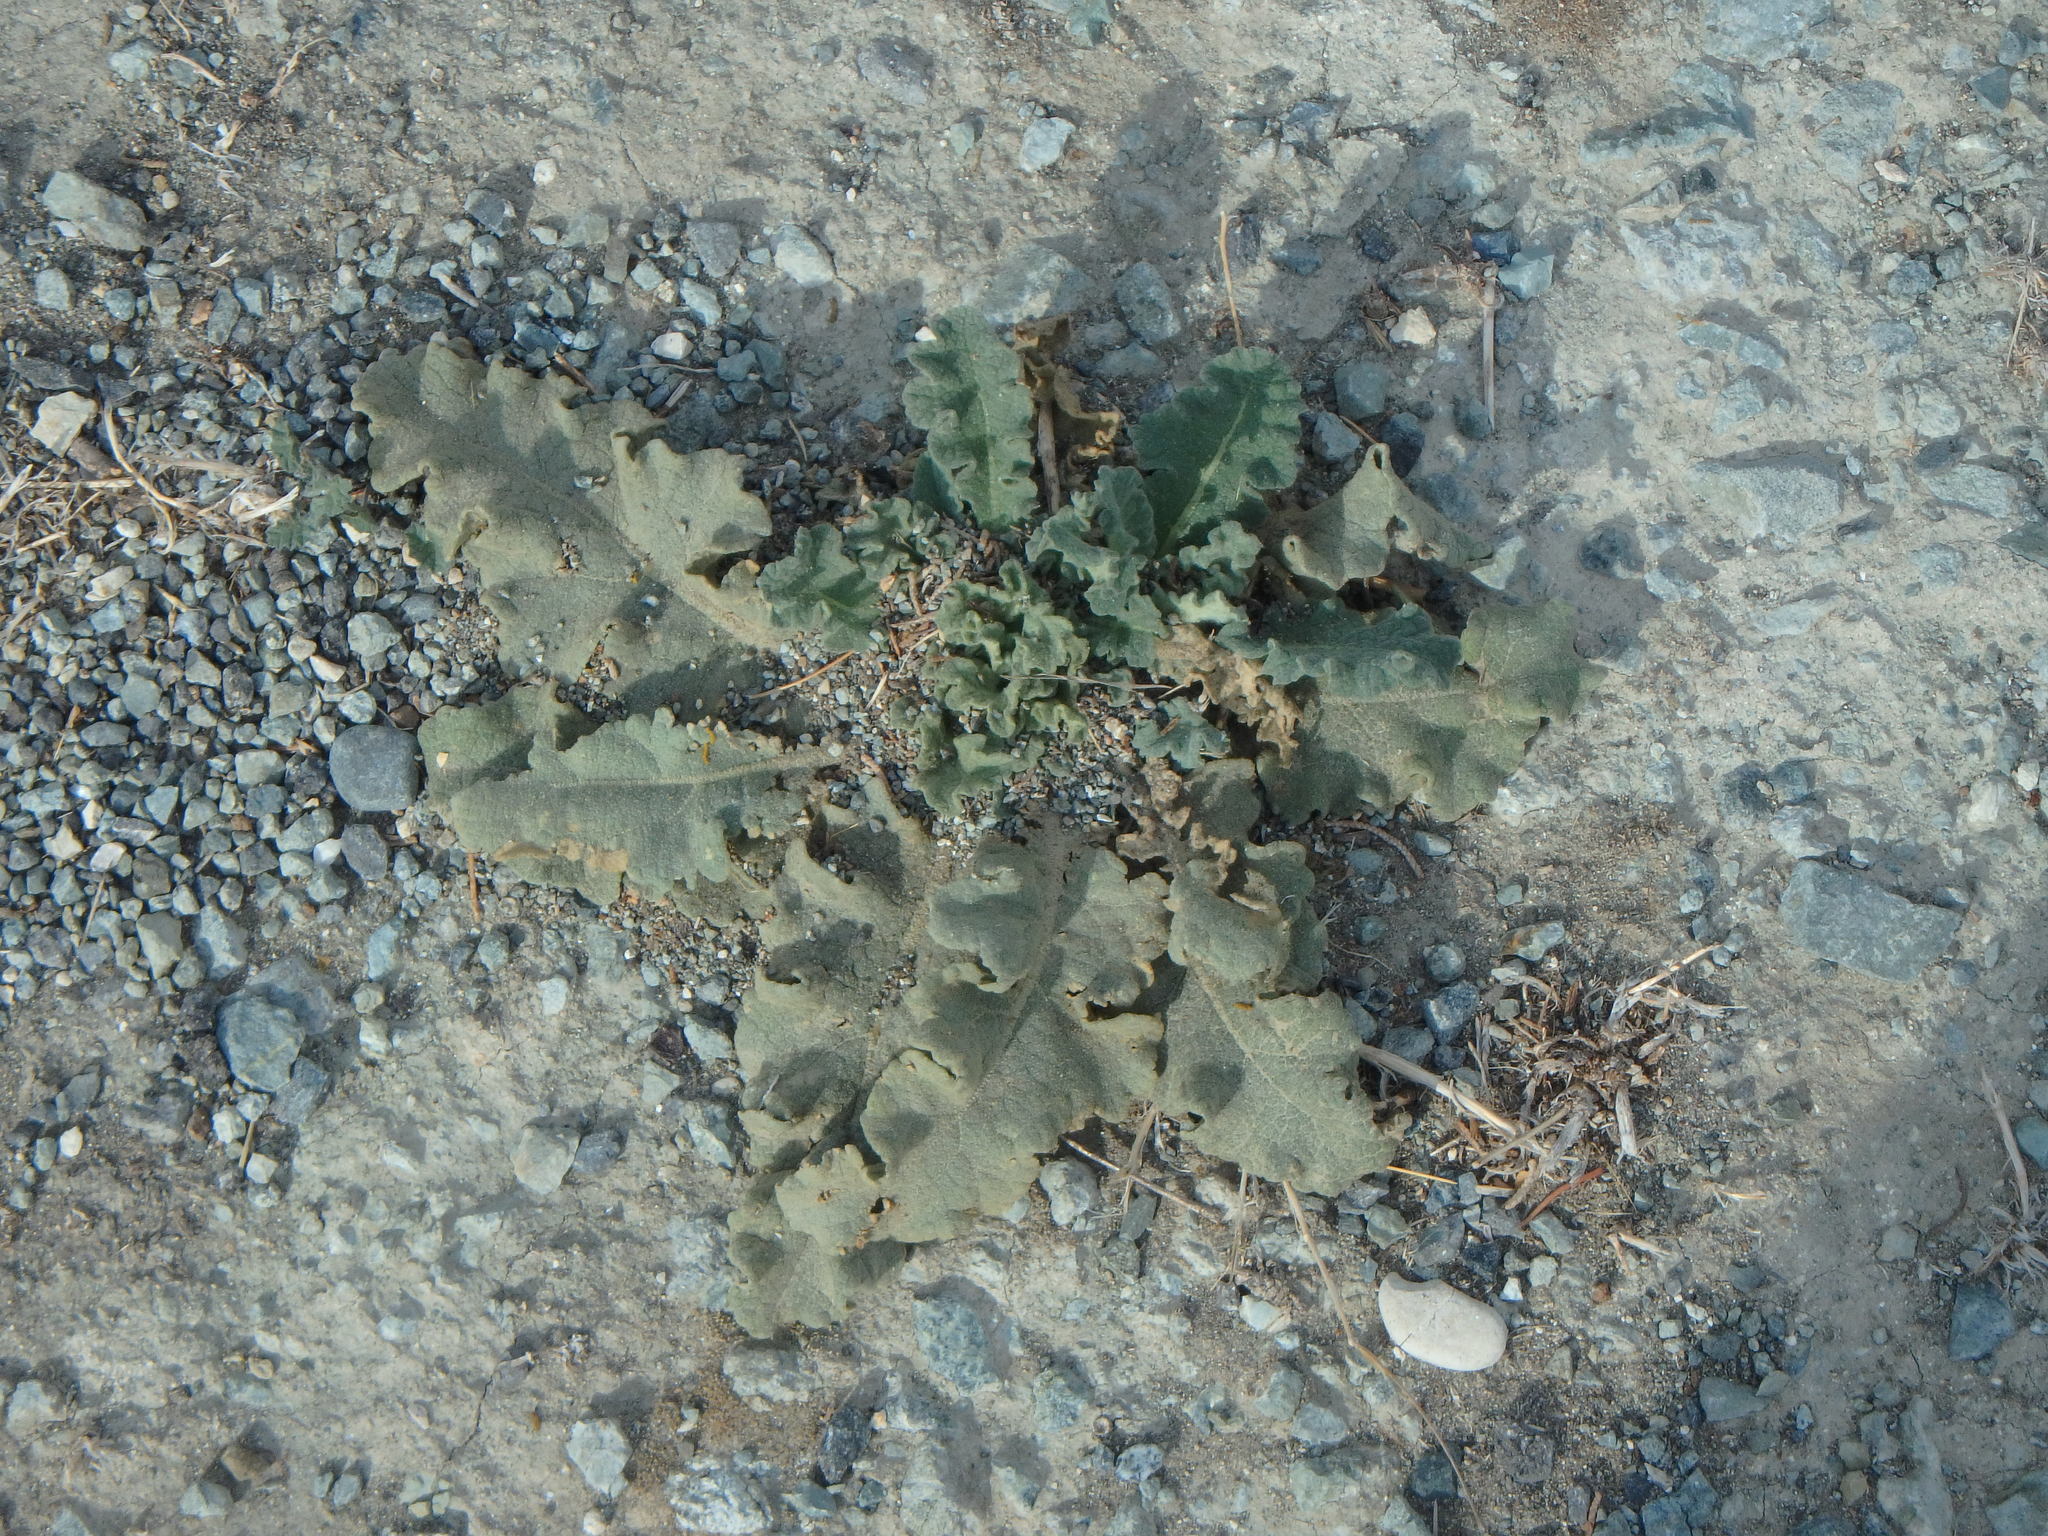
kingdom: Plantae
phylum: Tracheophyta
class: Magnoliopsida
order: Lamiales
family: Scrophulariaceae
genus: Verbascum
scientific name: Verbascum sinuatum
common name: Wavyleaf mullein
